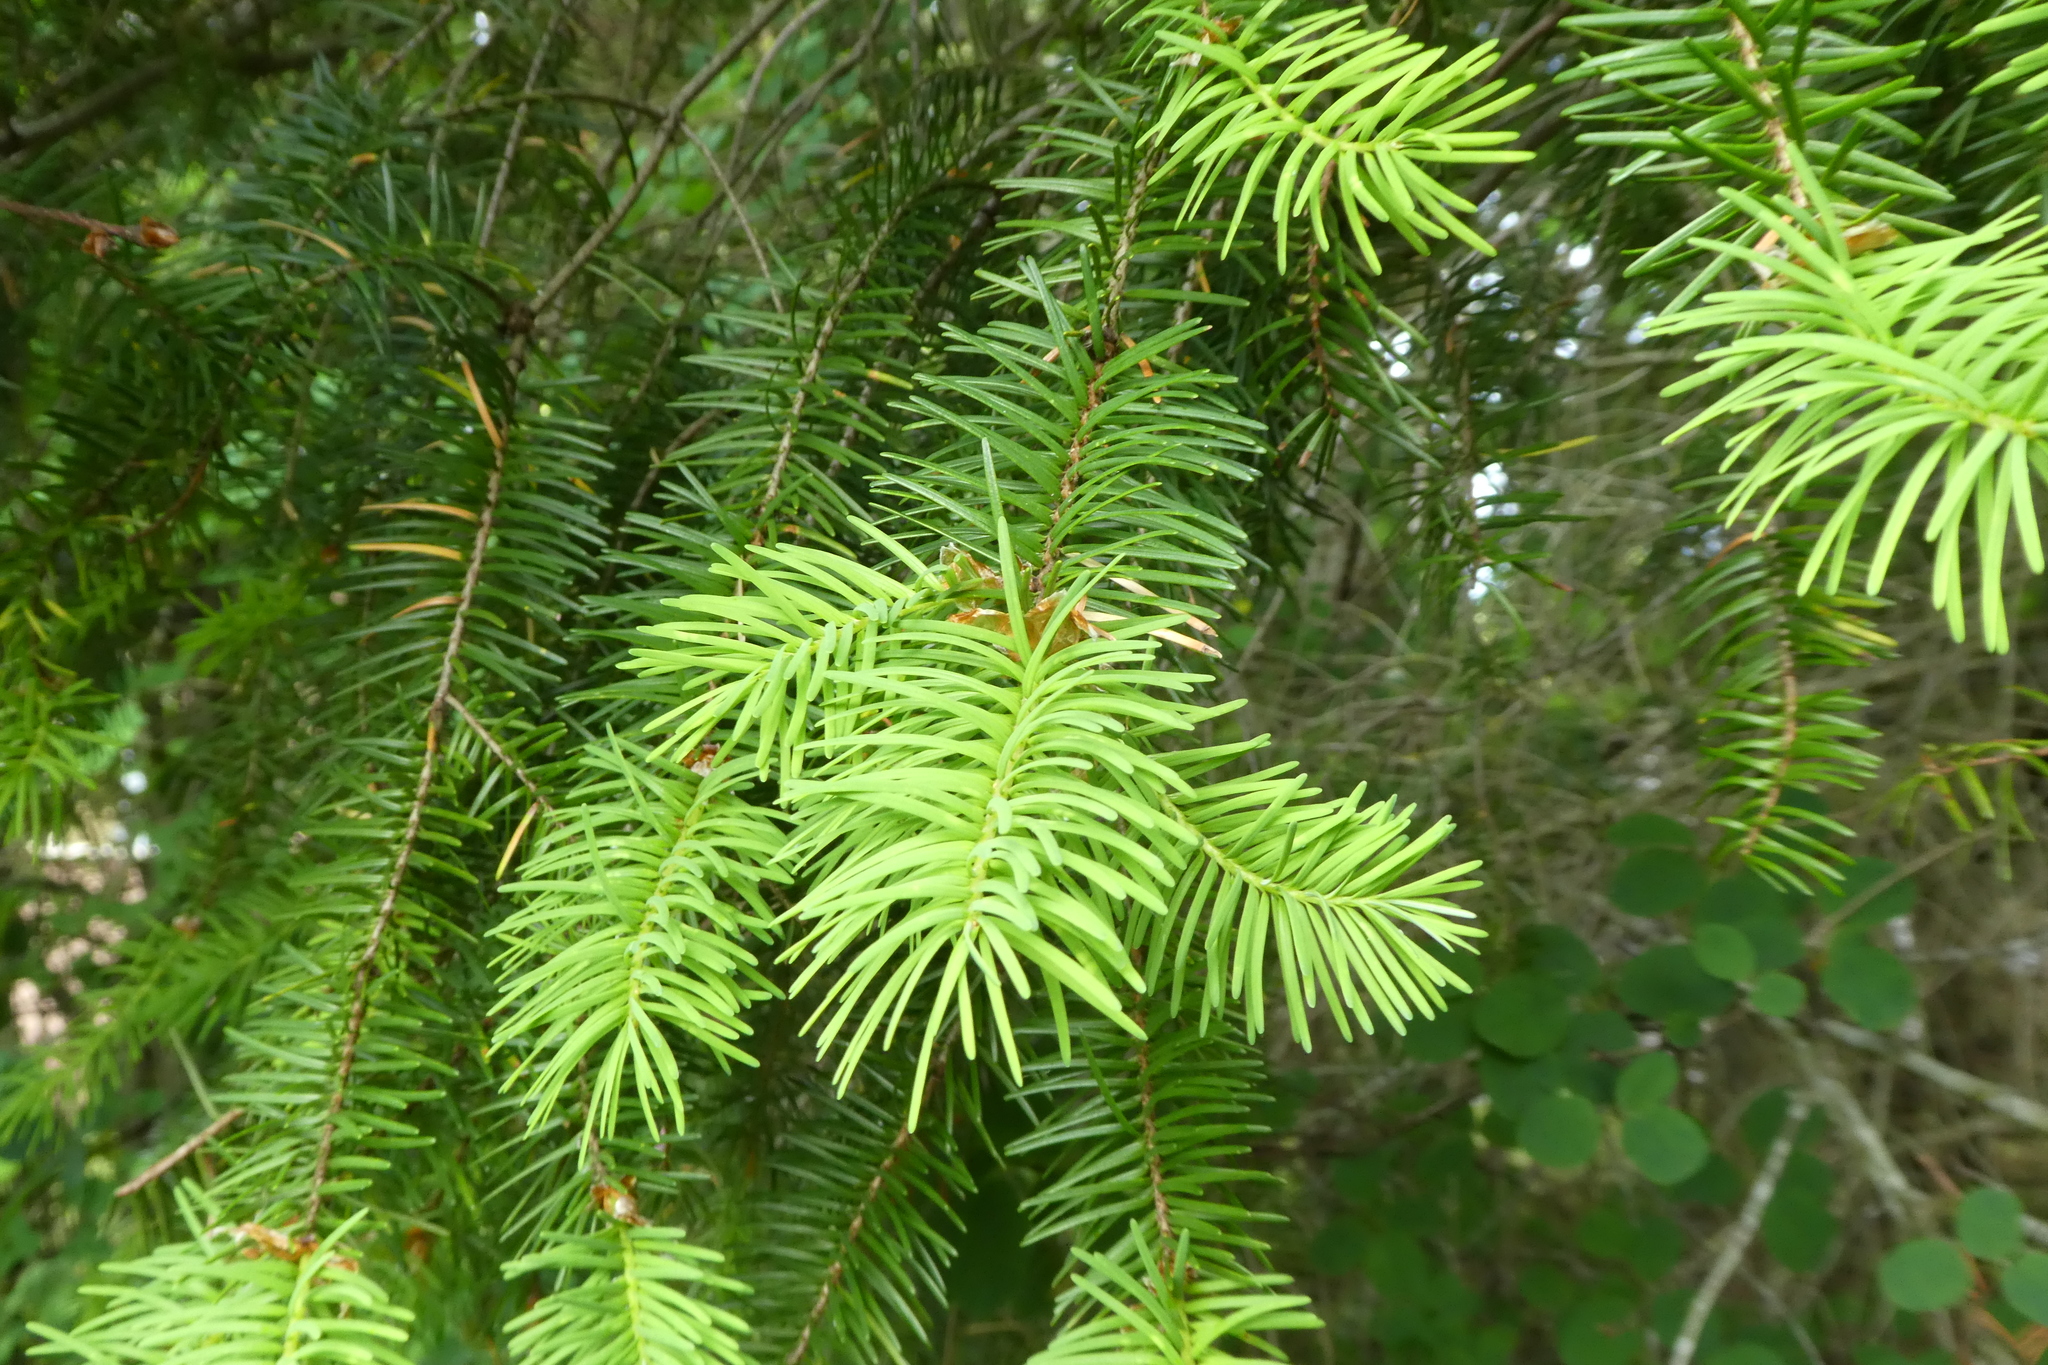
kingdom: Plantae
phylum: Tracheophyta
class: Pinopsida
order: Pinales
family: Pinaceae
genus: Pseudotsuga
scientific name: Pseudotsuga menziesii
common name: Douglas fir
